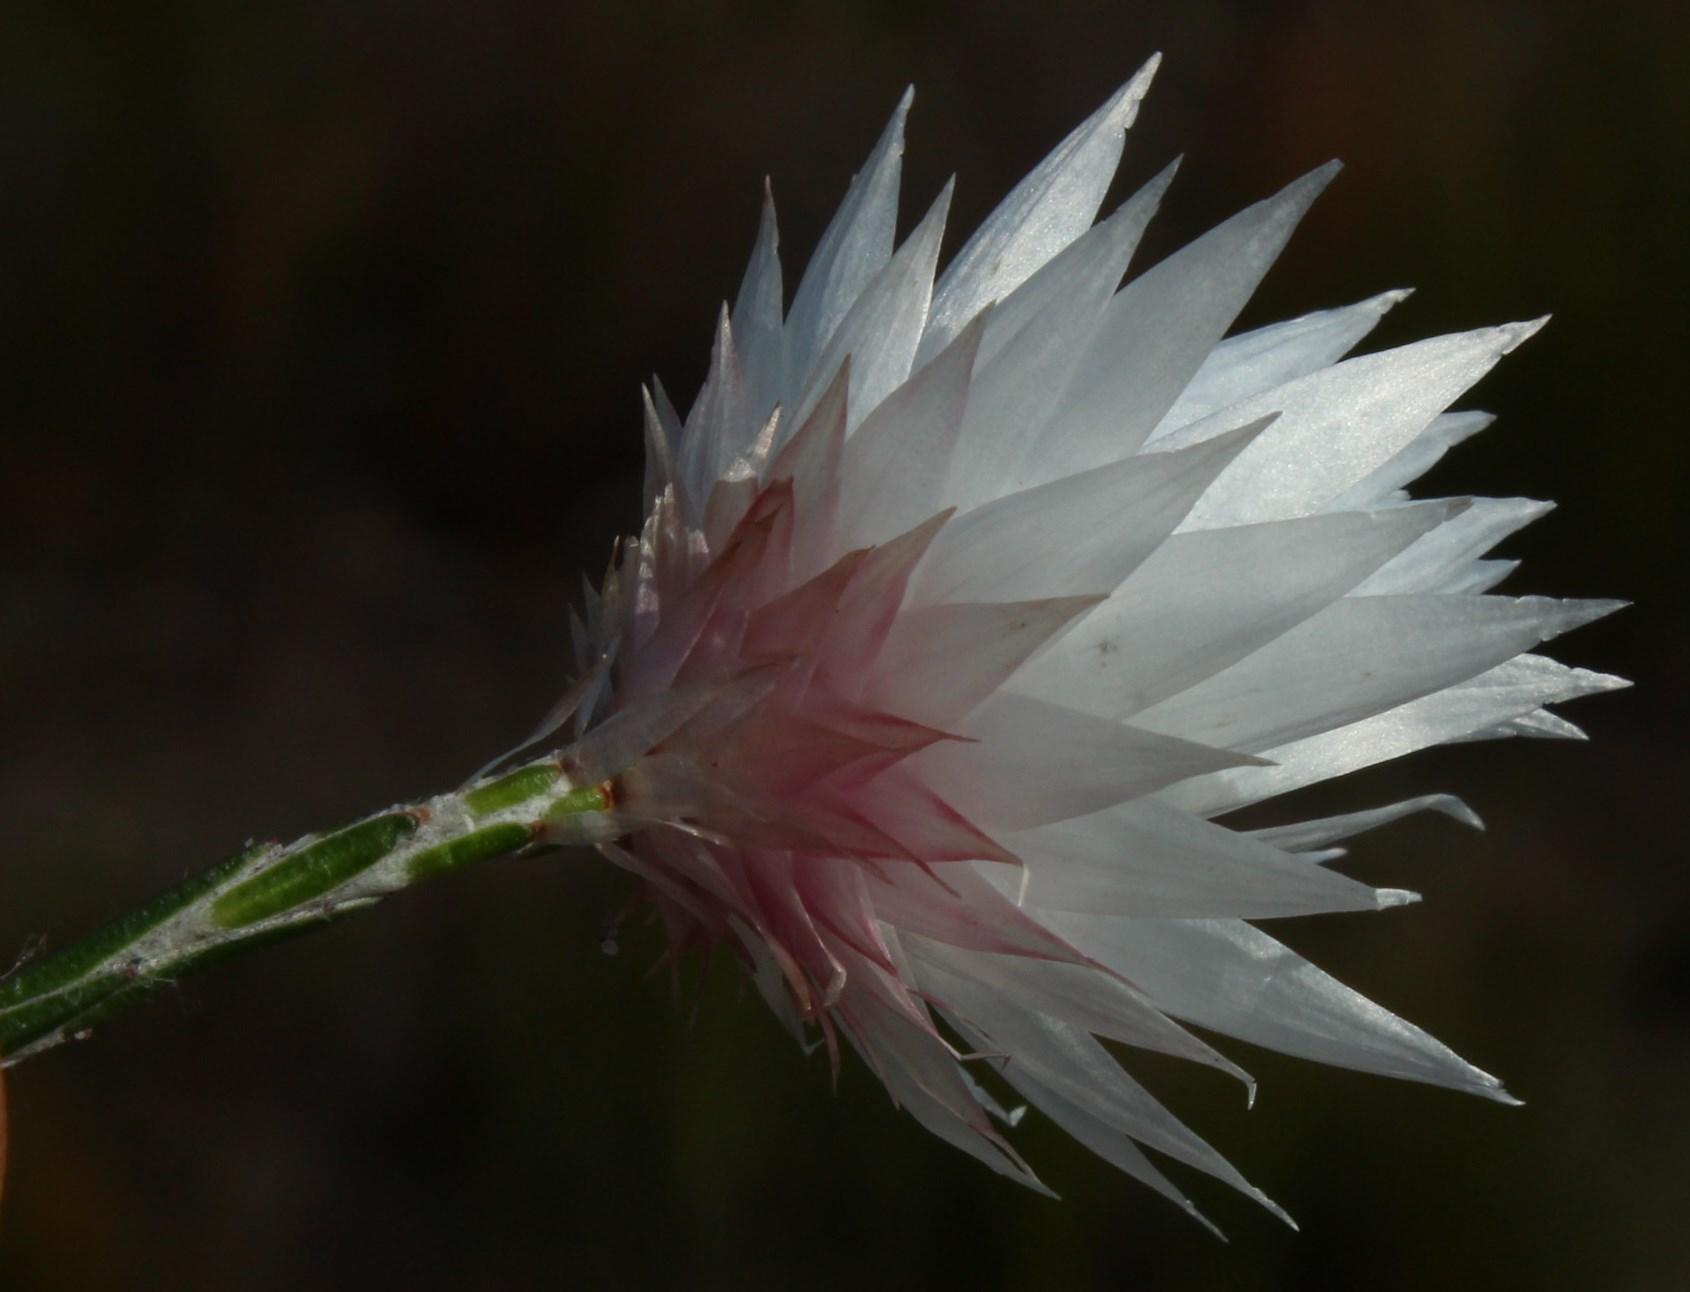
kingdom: Plantae
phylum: Tracheophyta
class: Magnoliopsida
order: Asterales
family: Asteraceae
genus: Edmondia
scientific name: Edmondia pinifolia
